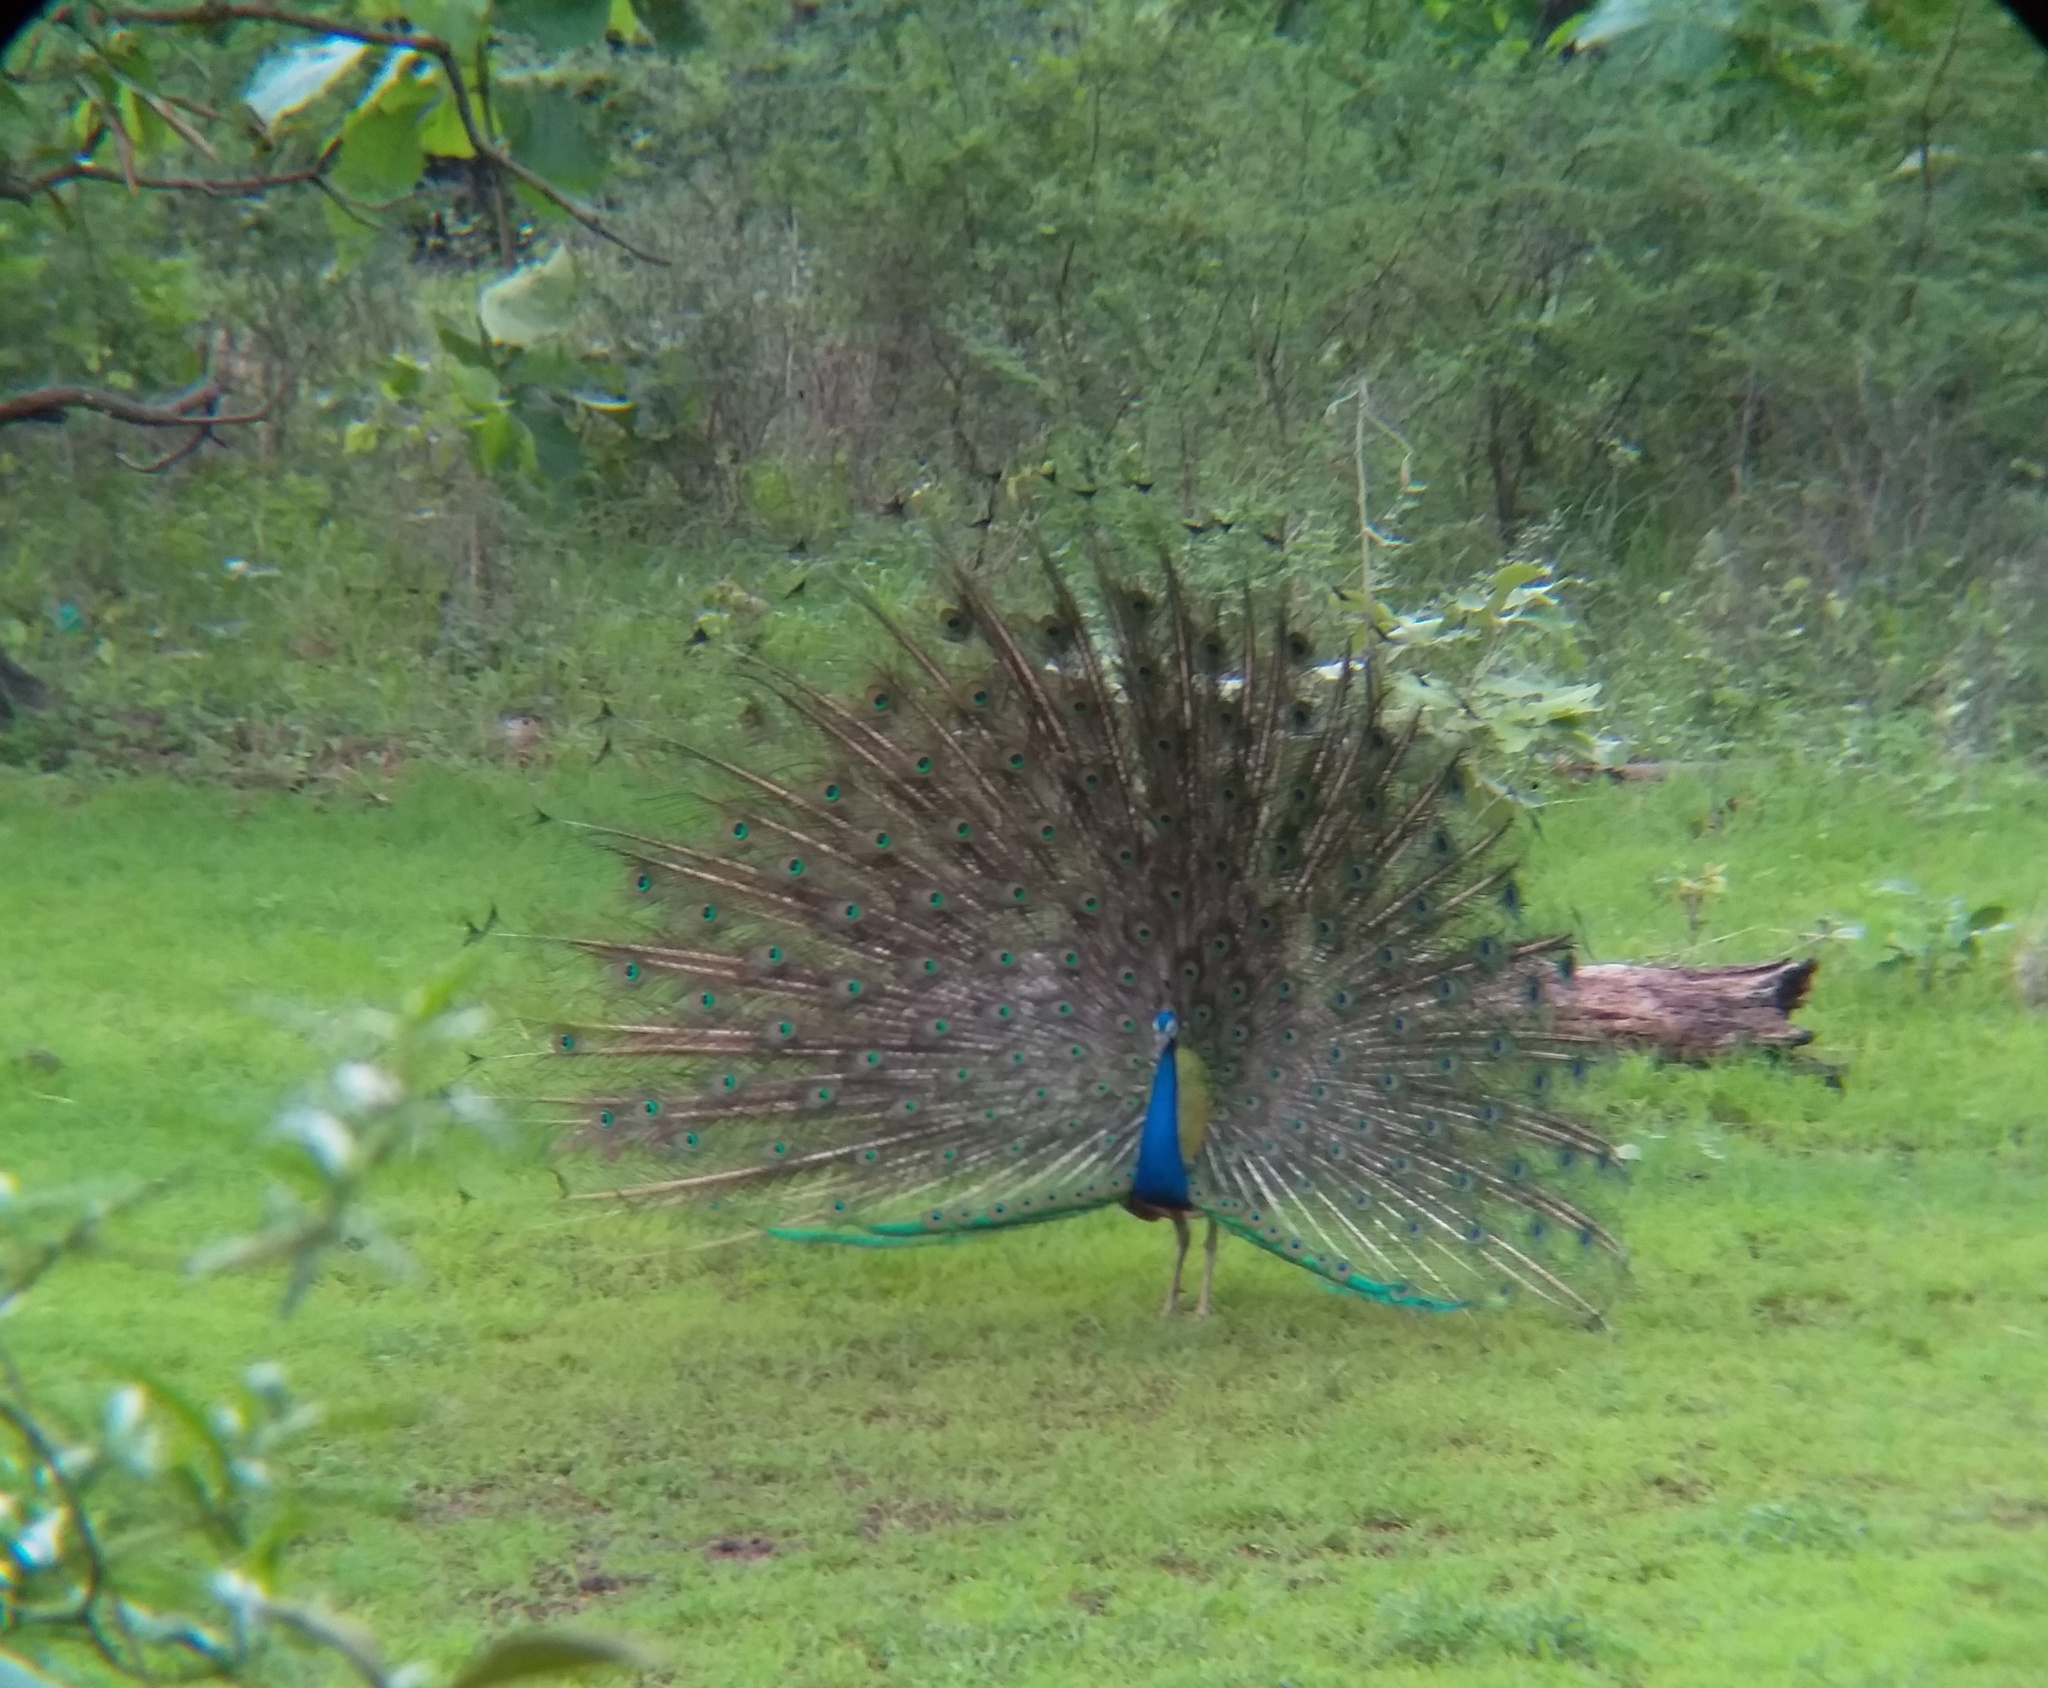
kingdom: Animalia
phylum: Chordata
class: Aves
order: Galliformes
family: Phasianidae
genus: Pavo
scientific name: Pavo cristatus
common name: Indian peafowl
